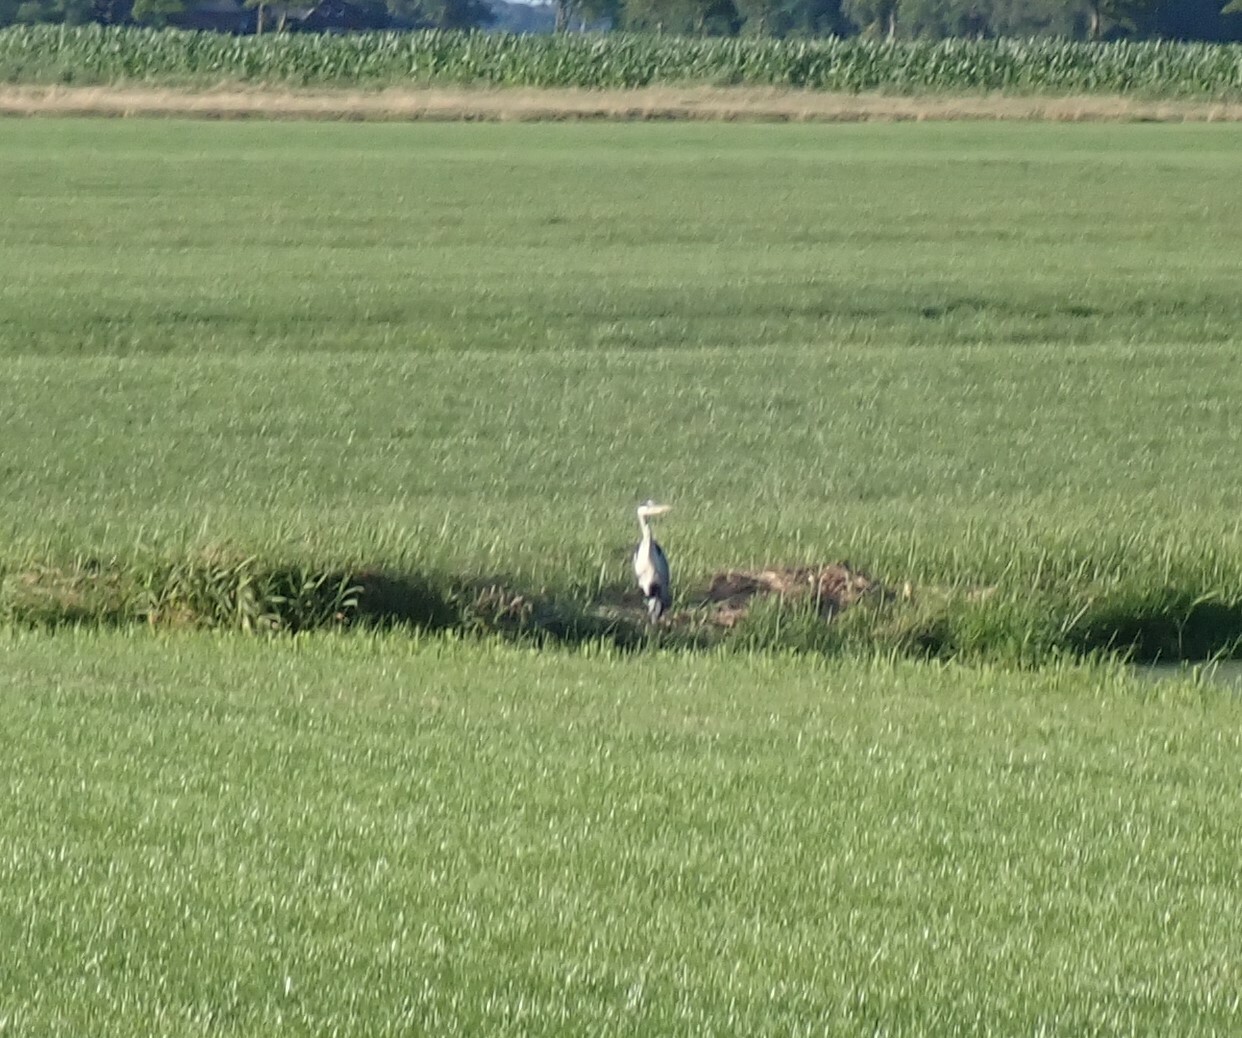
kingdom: Animalia
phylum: Chordata
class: Aves
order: Pelecaniformes
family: Ardeidae
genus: Ardea
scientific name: Ardea cinerea
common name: Grey heron
